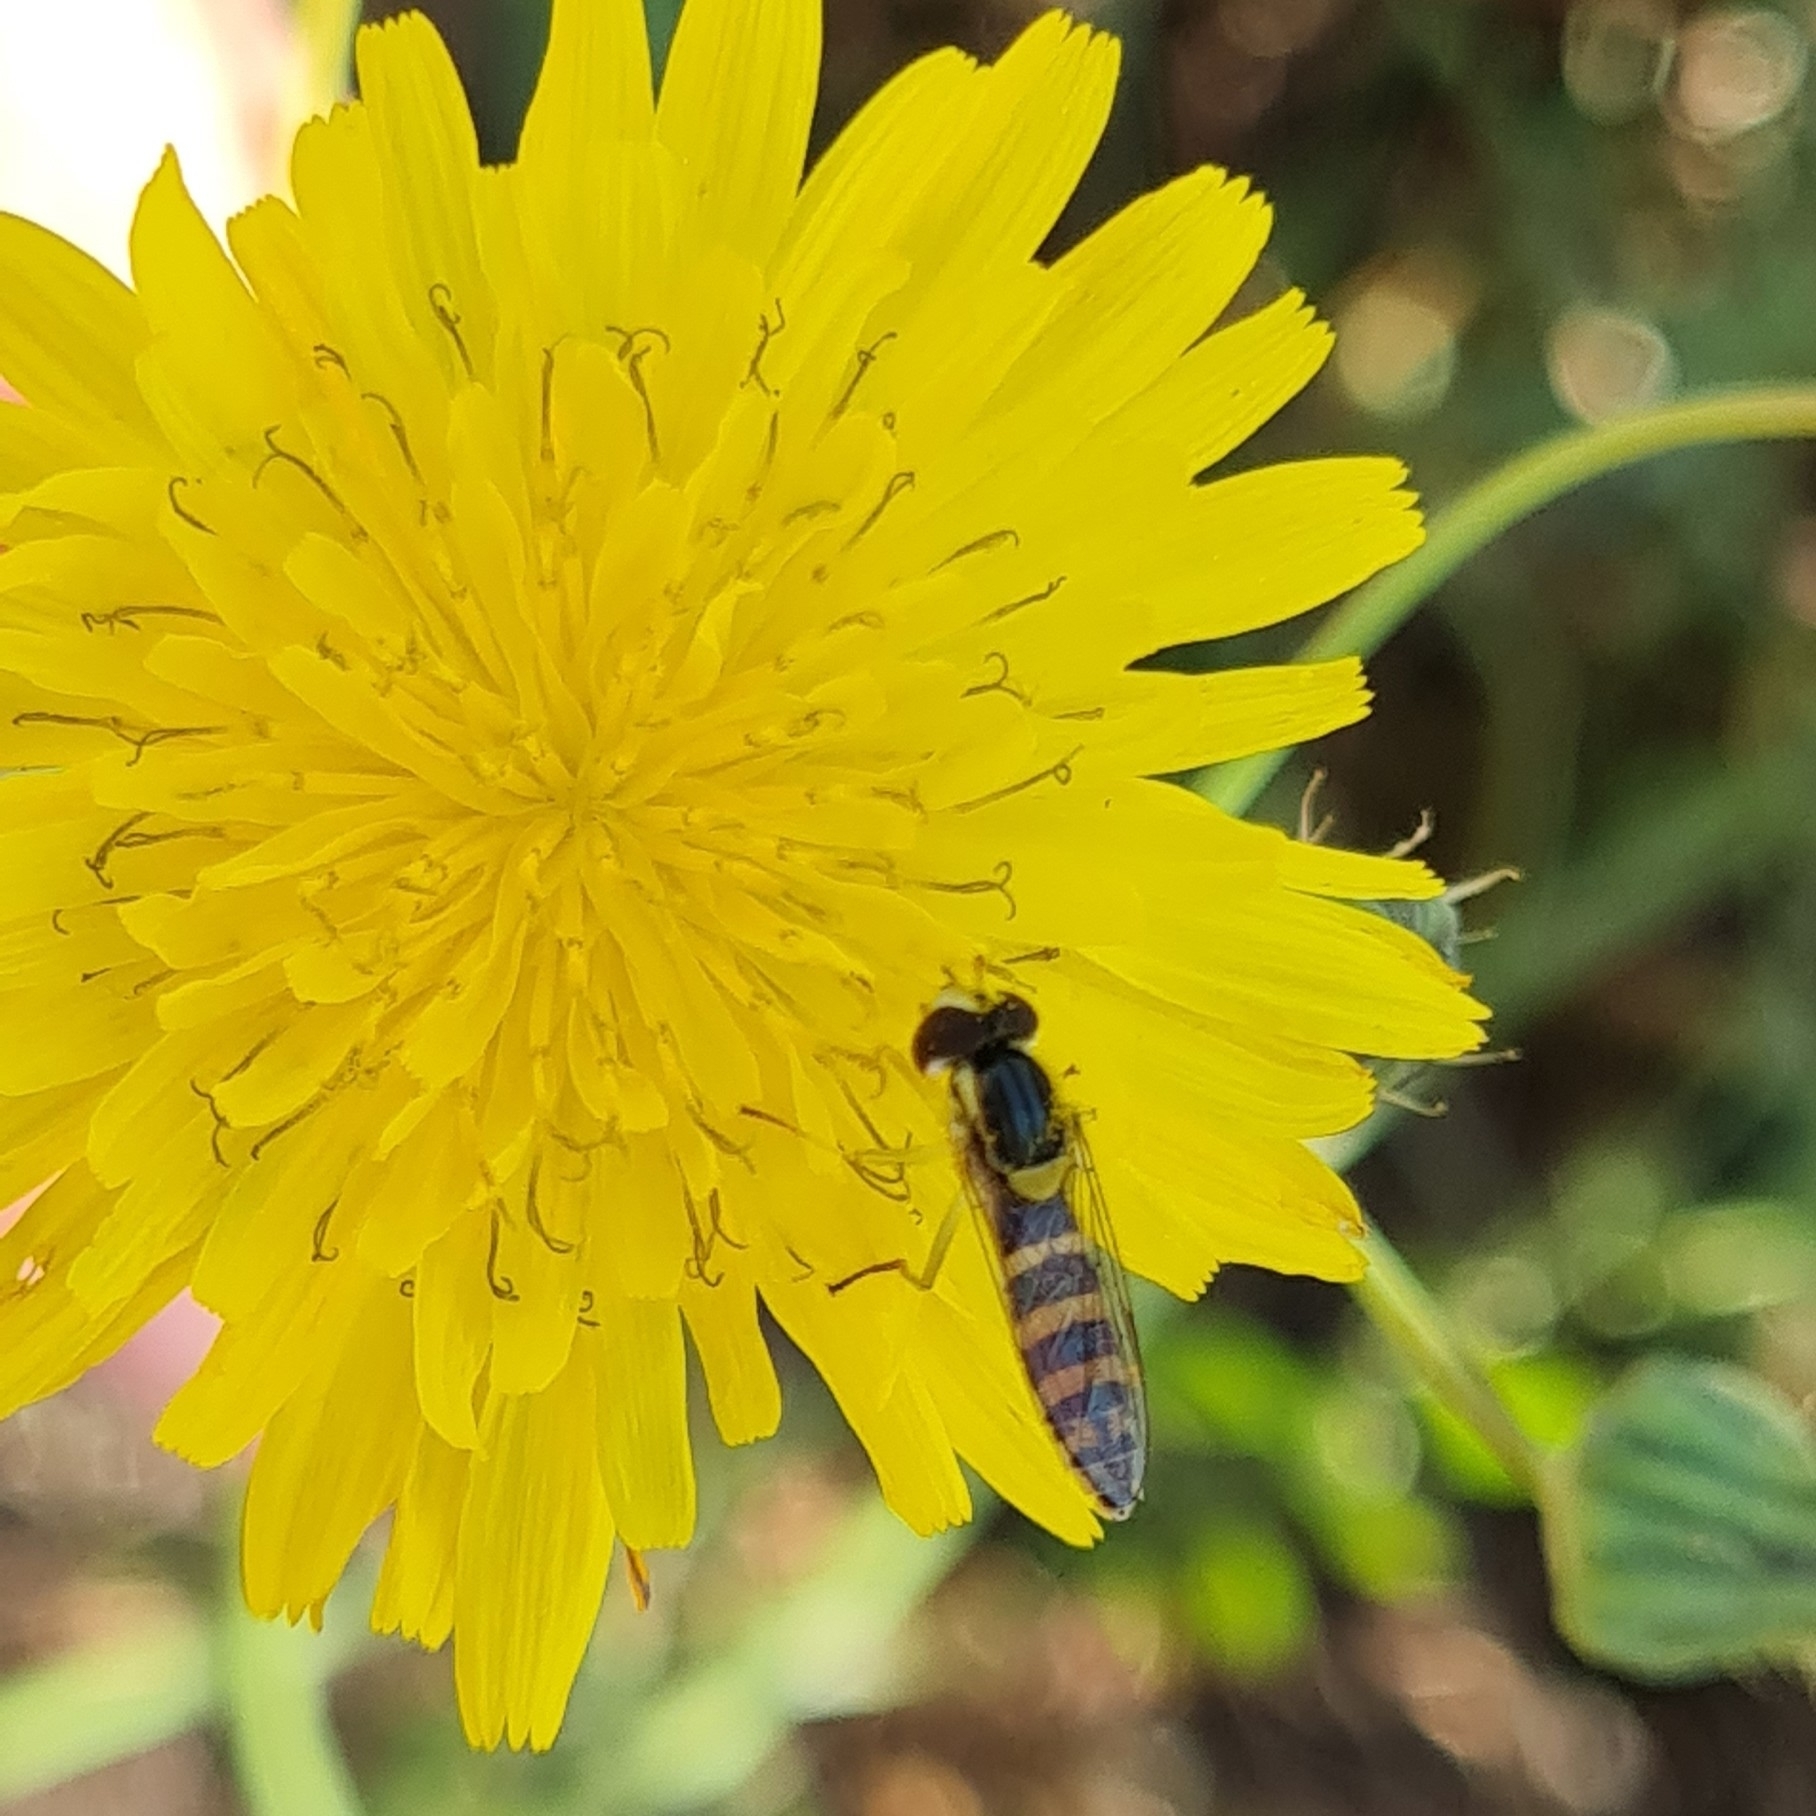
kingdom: Animalia
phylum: Arthropoda
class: Insecta
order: Diptera
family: Syrphidae
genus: Sphaerophoria
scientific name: Sphaerophoria
